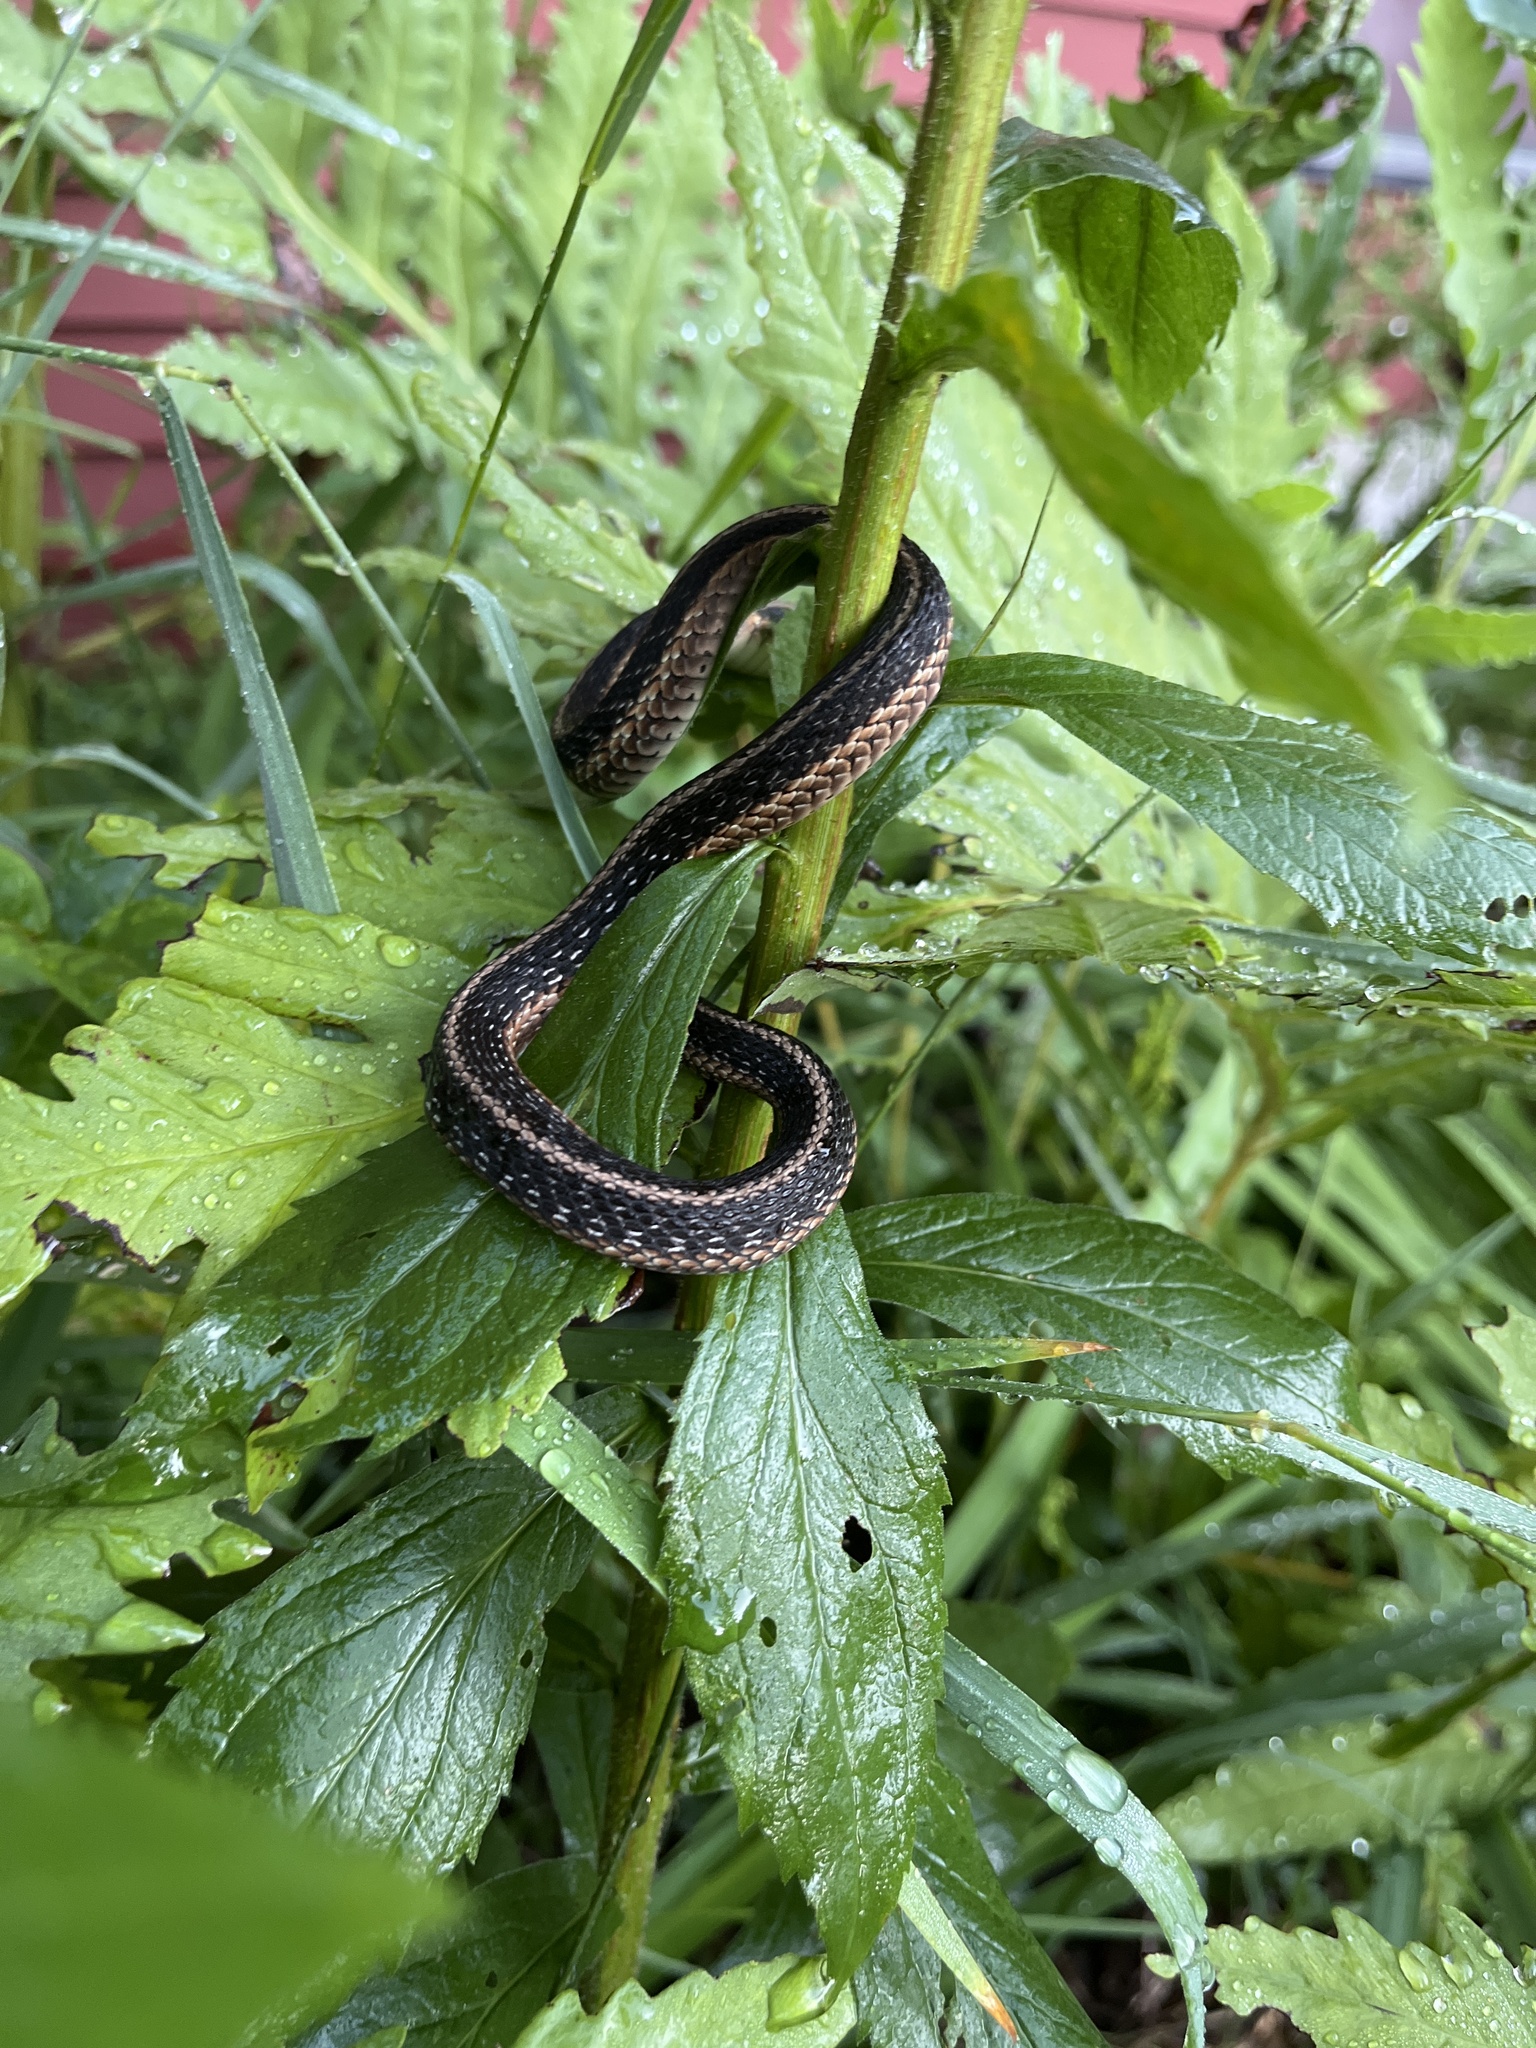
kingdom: Animalia
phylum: Chordata
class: Squamata
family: Colubridae
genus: Thamnophis
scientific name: Thamnophis sirtalis
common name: Common garter snake
